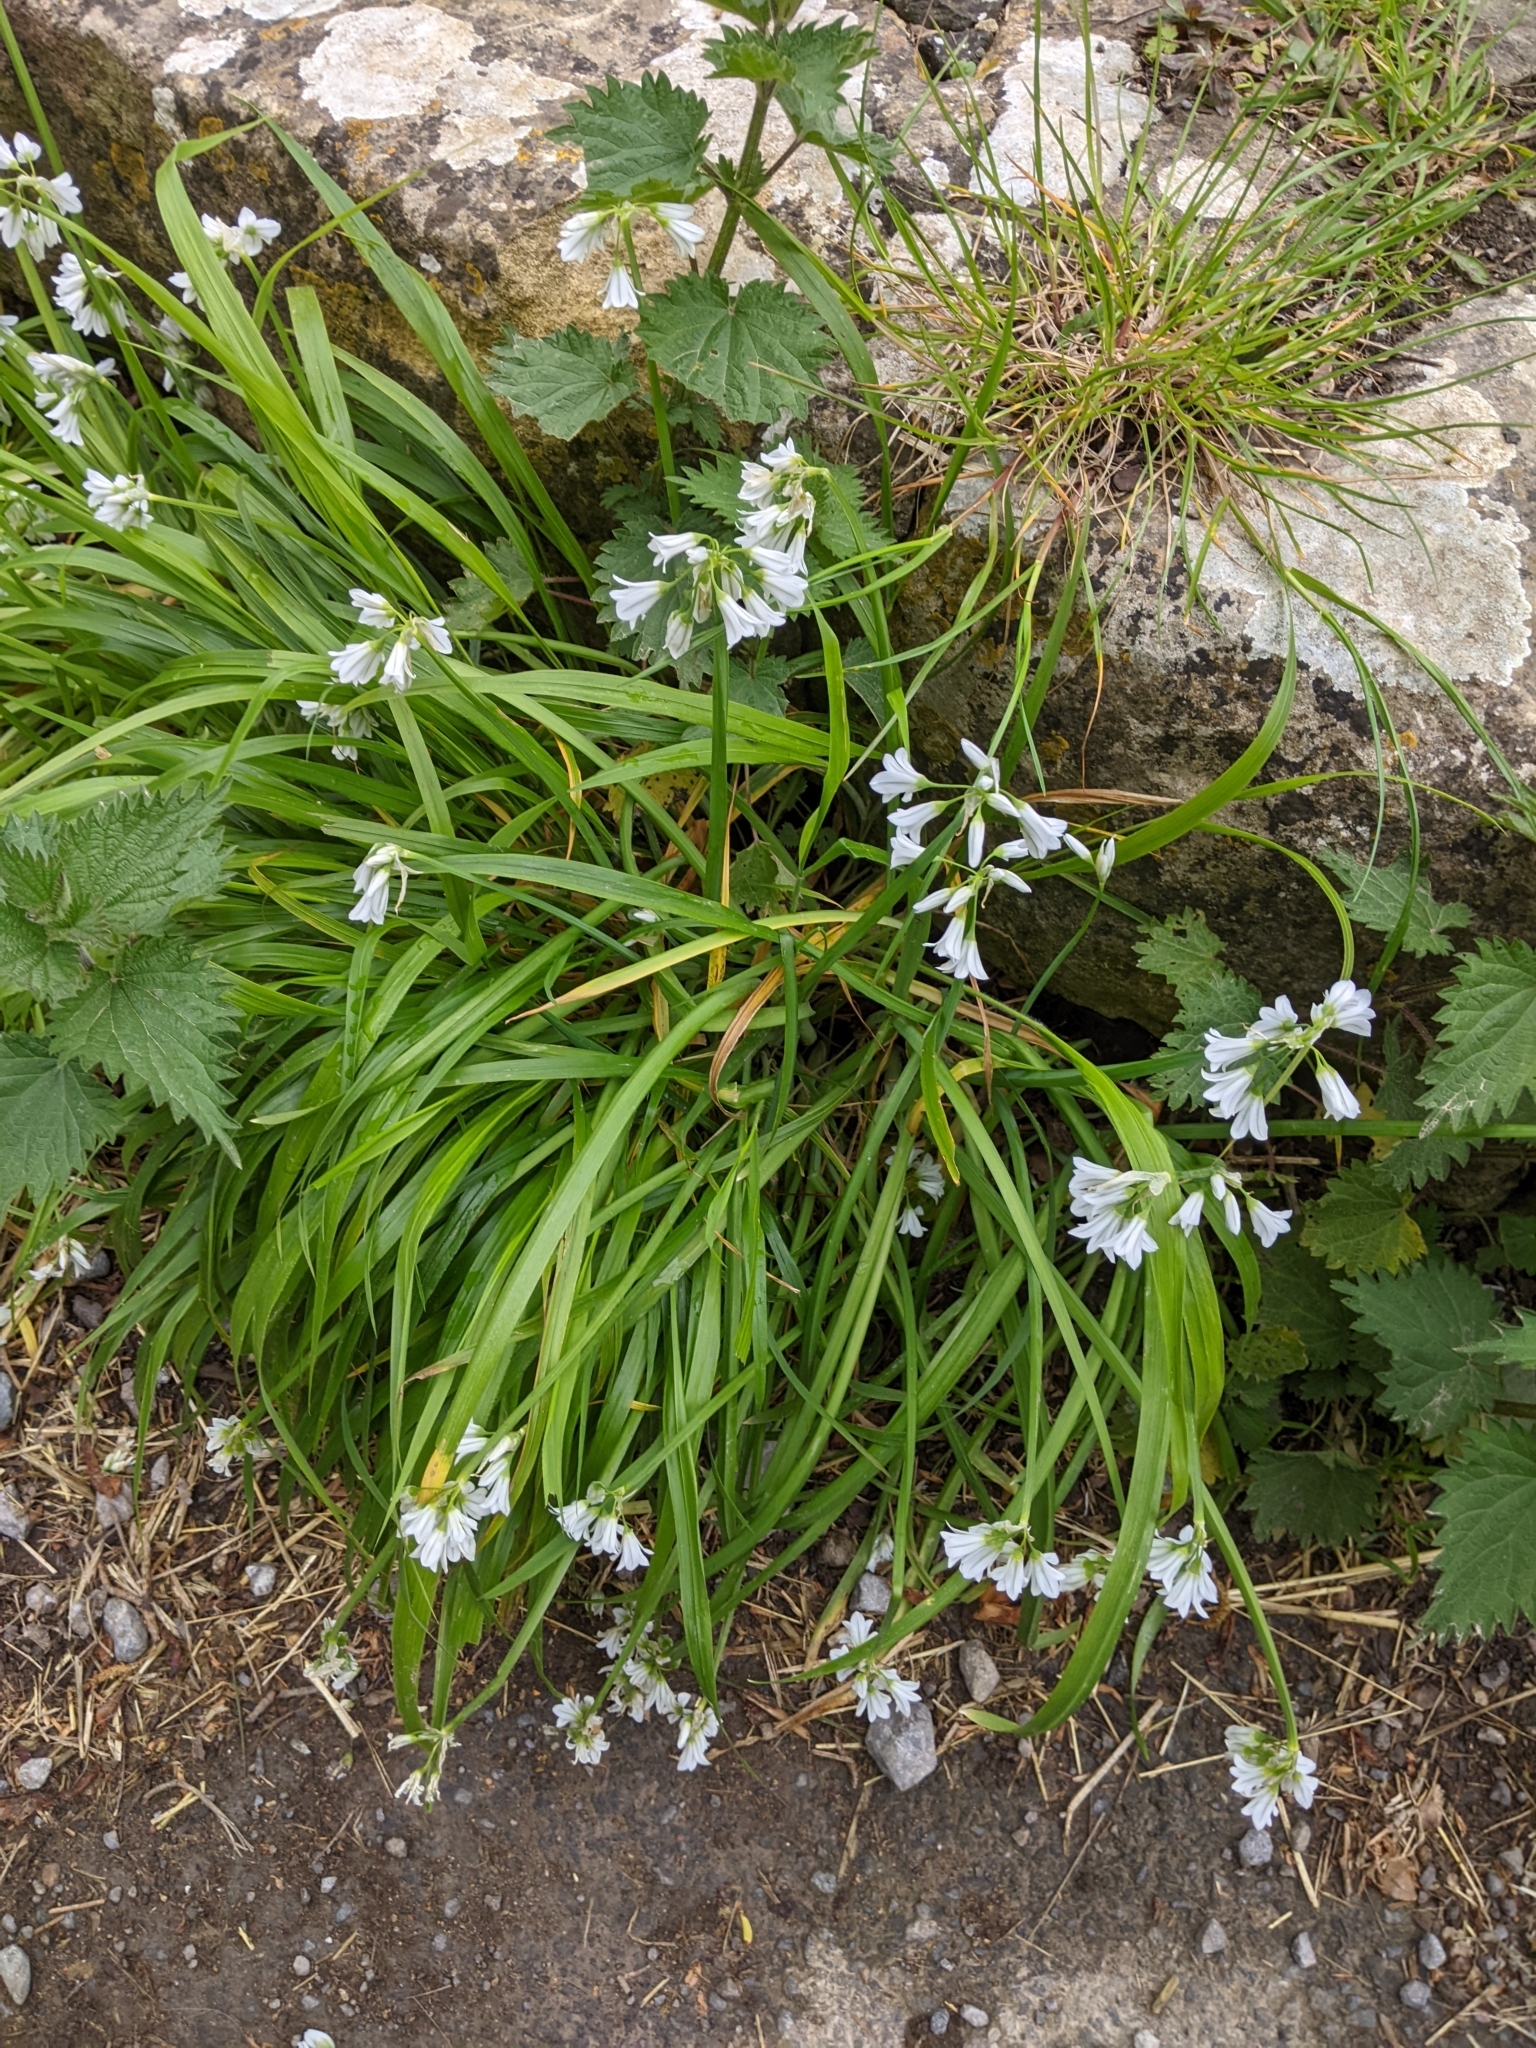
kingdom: Plantae
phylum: Tracheophyta
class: Liliopsida
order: Asparagales
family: Amaryllidaceae
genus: Allium
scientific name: Allium triquetrum
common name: Three-cornered garlic
